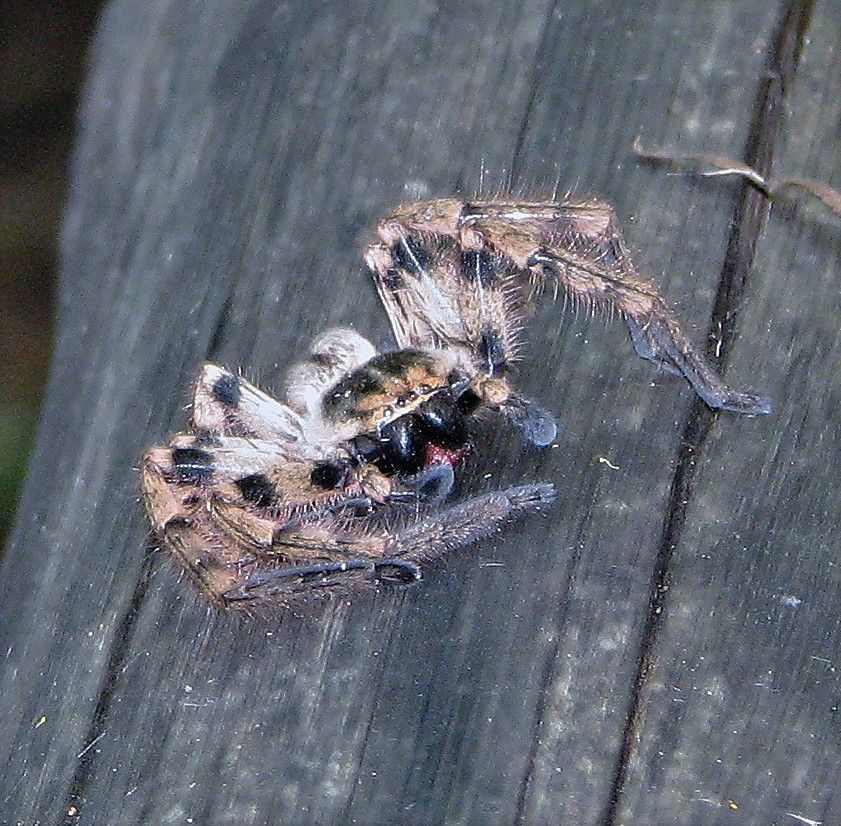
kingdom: Animalia
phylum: Arthropoda
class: Arachnida
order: Araneae
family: Sparassidae
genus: Polybetes
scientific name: Polybetes pythagoricus
